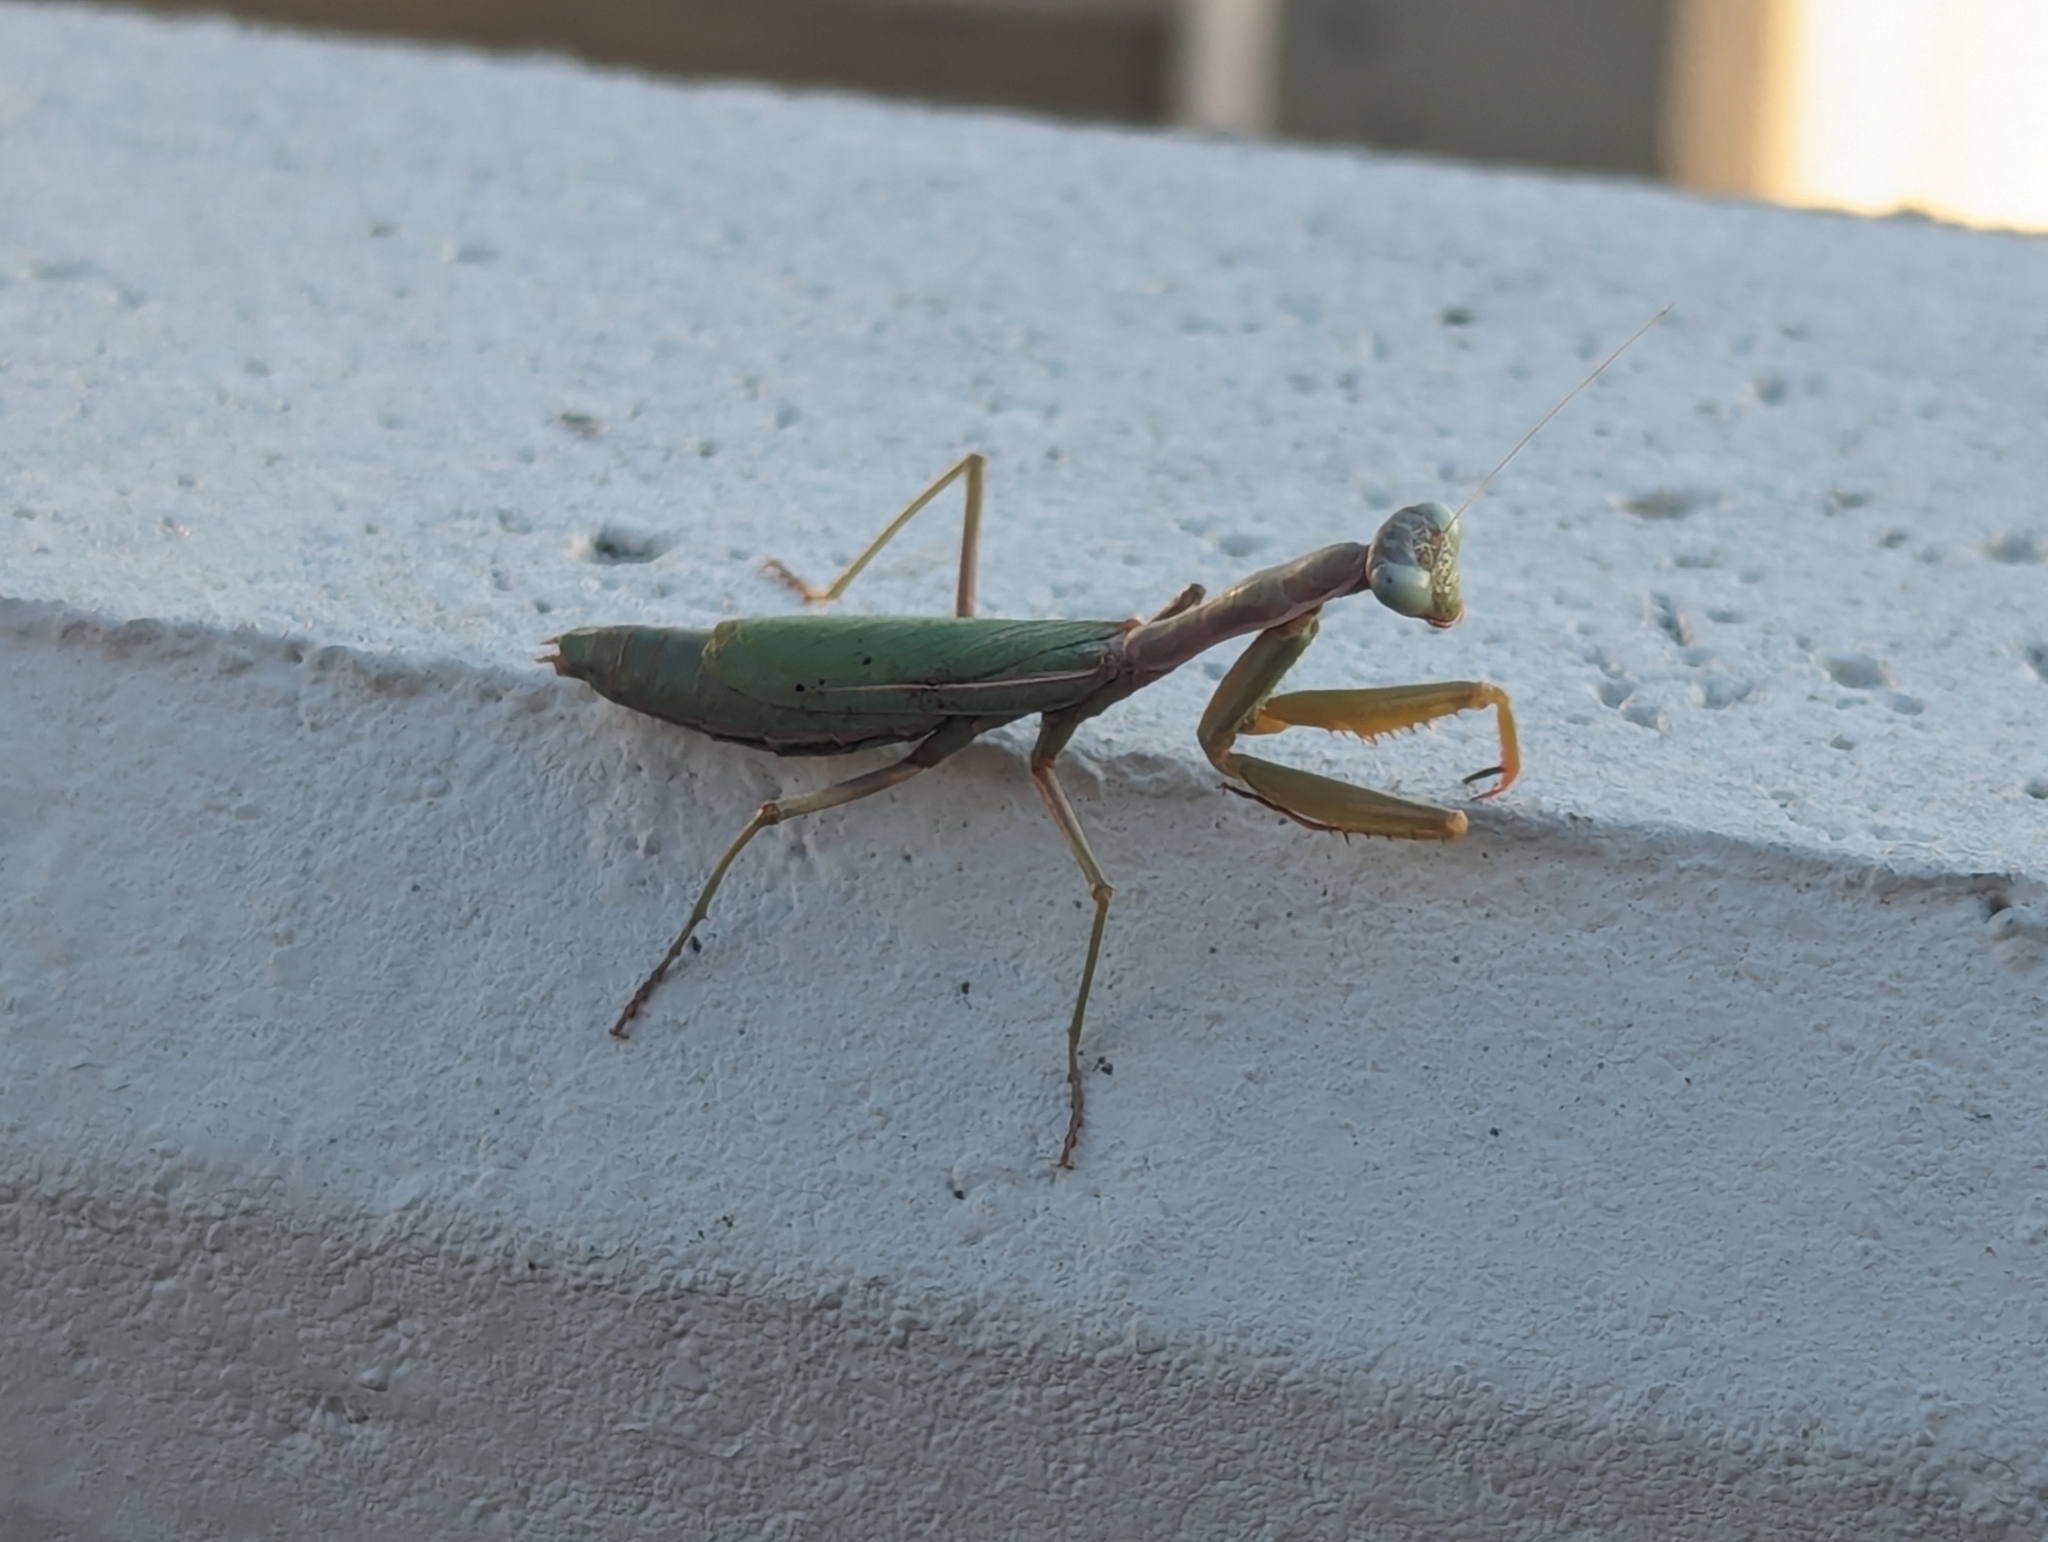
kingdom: Animalia
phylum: Arthropoda
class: Insecta
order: Mantodea
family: Eremiaphilidae
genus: Iris
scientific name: Iris oratoria
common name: Mediterranean mantis
